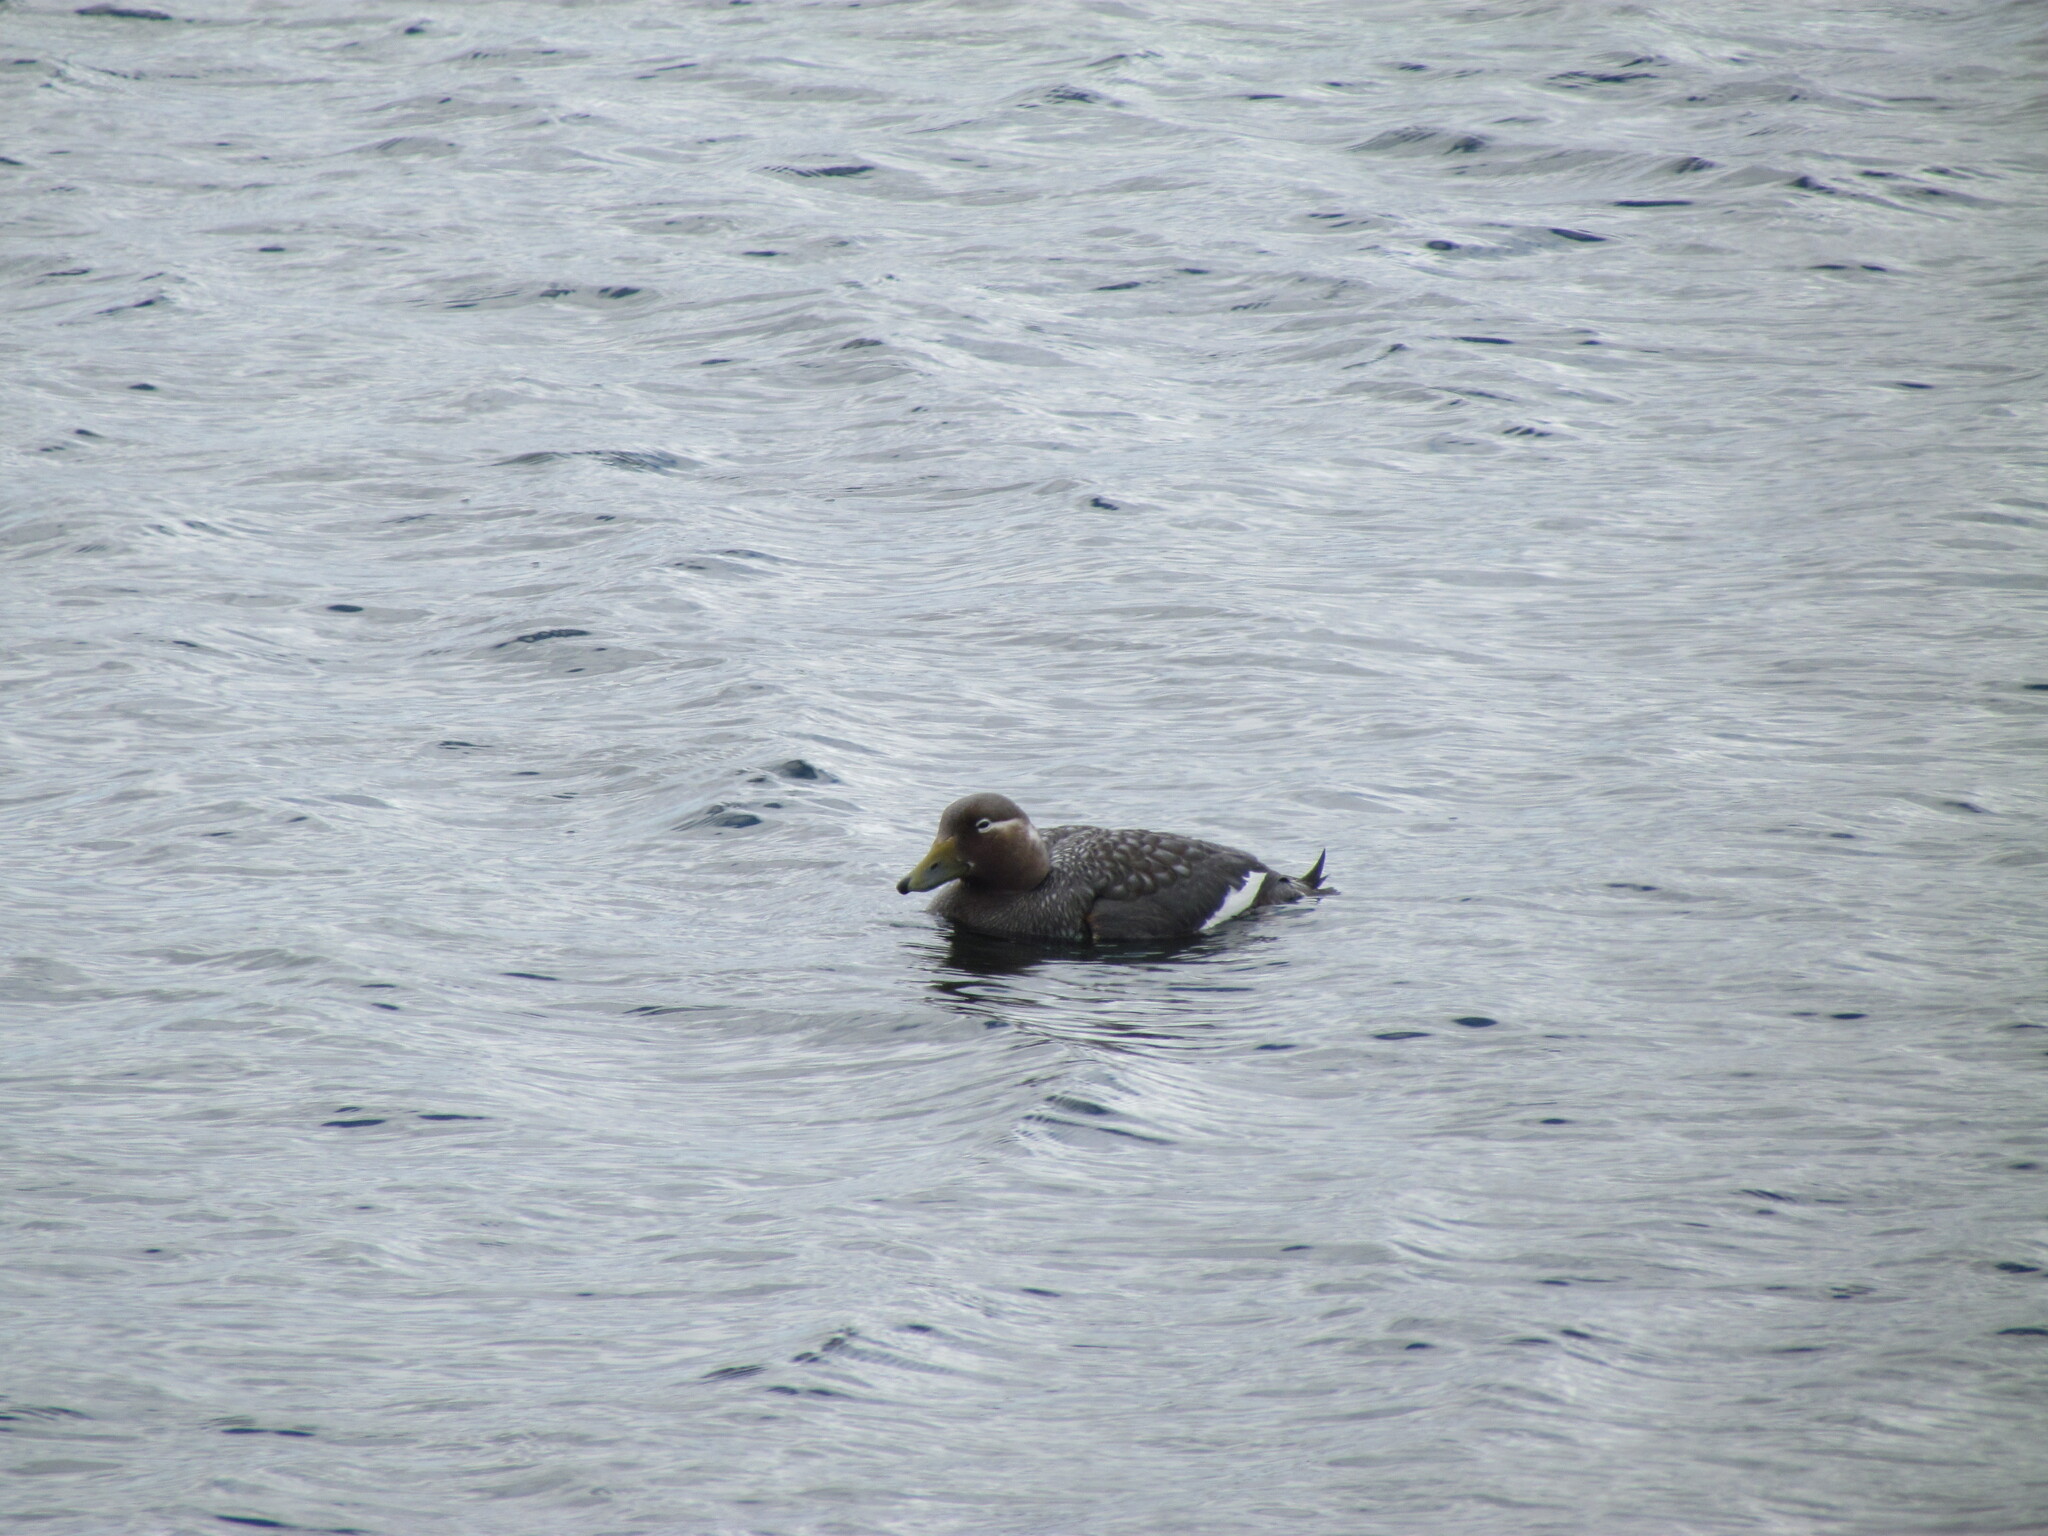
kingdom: Animalia
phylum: Chordata
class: Aves
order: Anseriformes
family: Anatidae
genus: Tachyeres
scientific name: Tachyeres patachonicus
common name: Flying steamer duck
